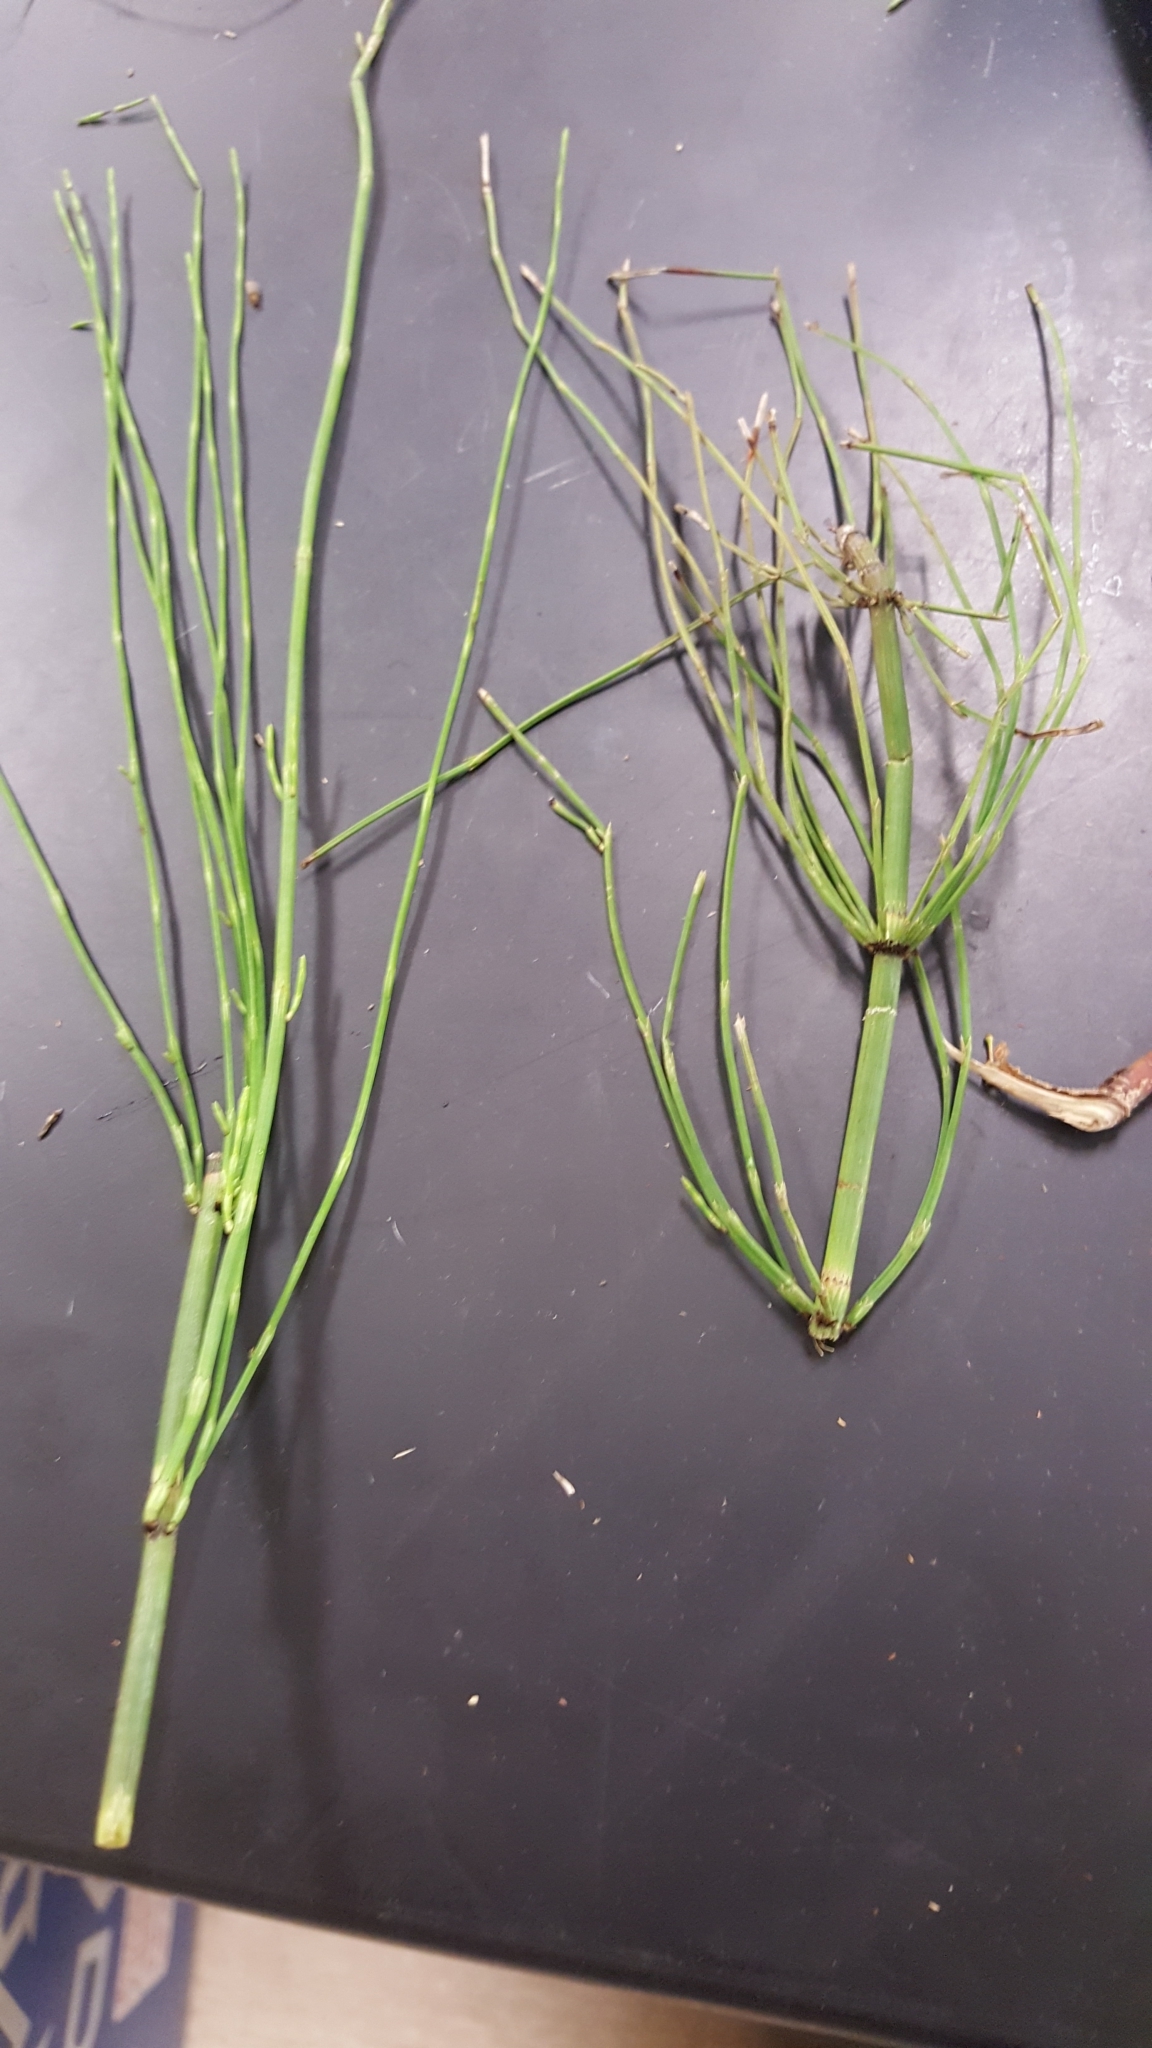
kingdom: Plantae
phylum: Tracheophyta
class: Polypodiopsida
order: Equisetales
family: Equisetaceae
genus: Equisetum
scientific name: Equisetum fluviatile
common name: Water horsetail
